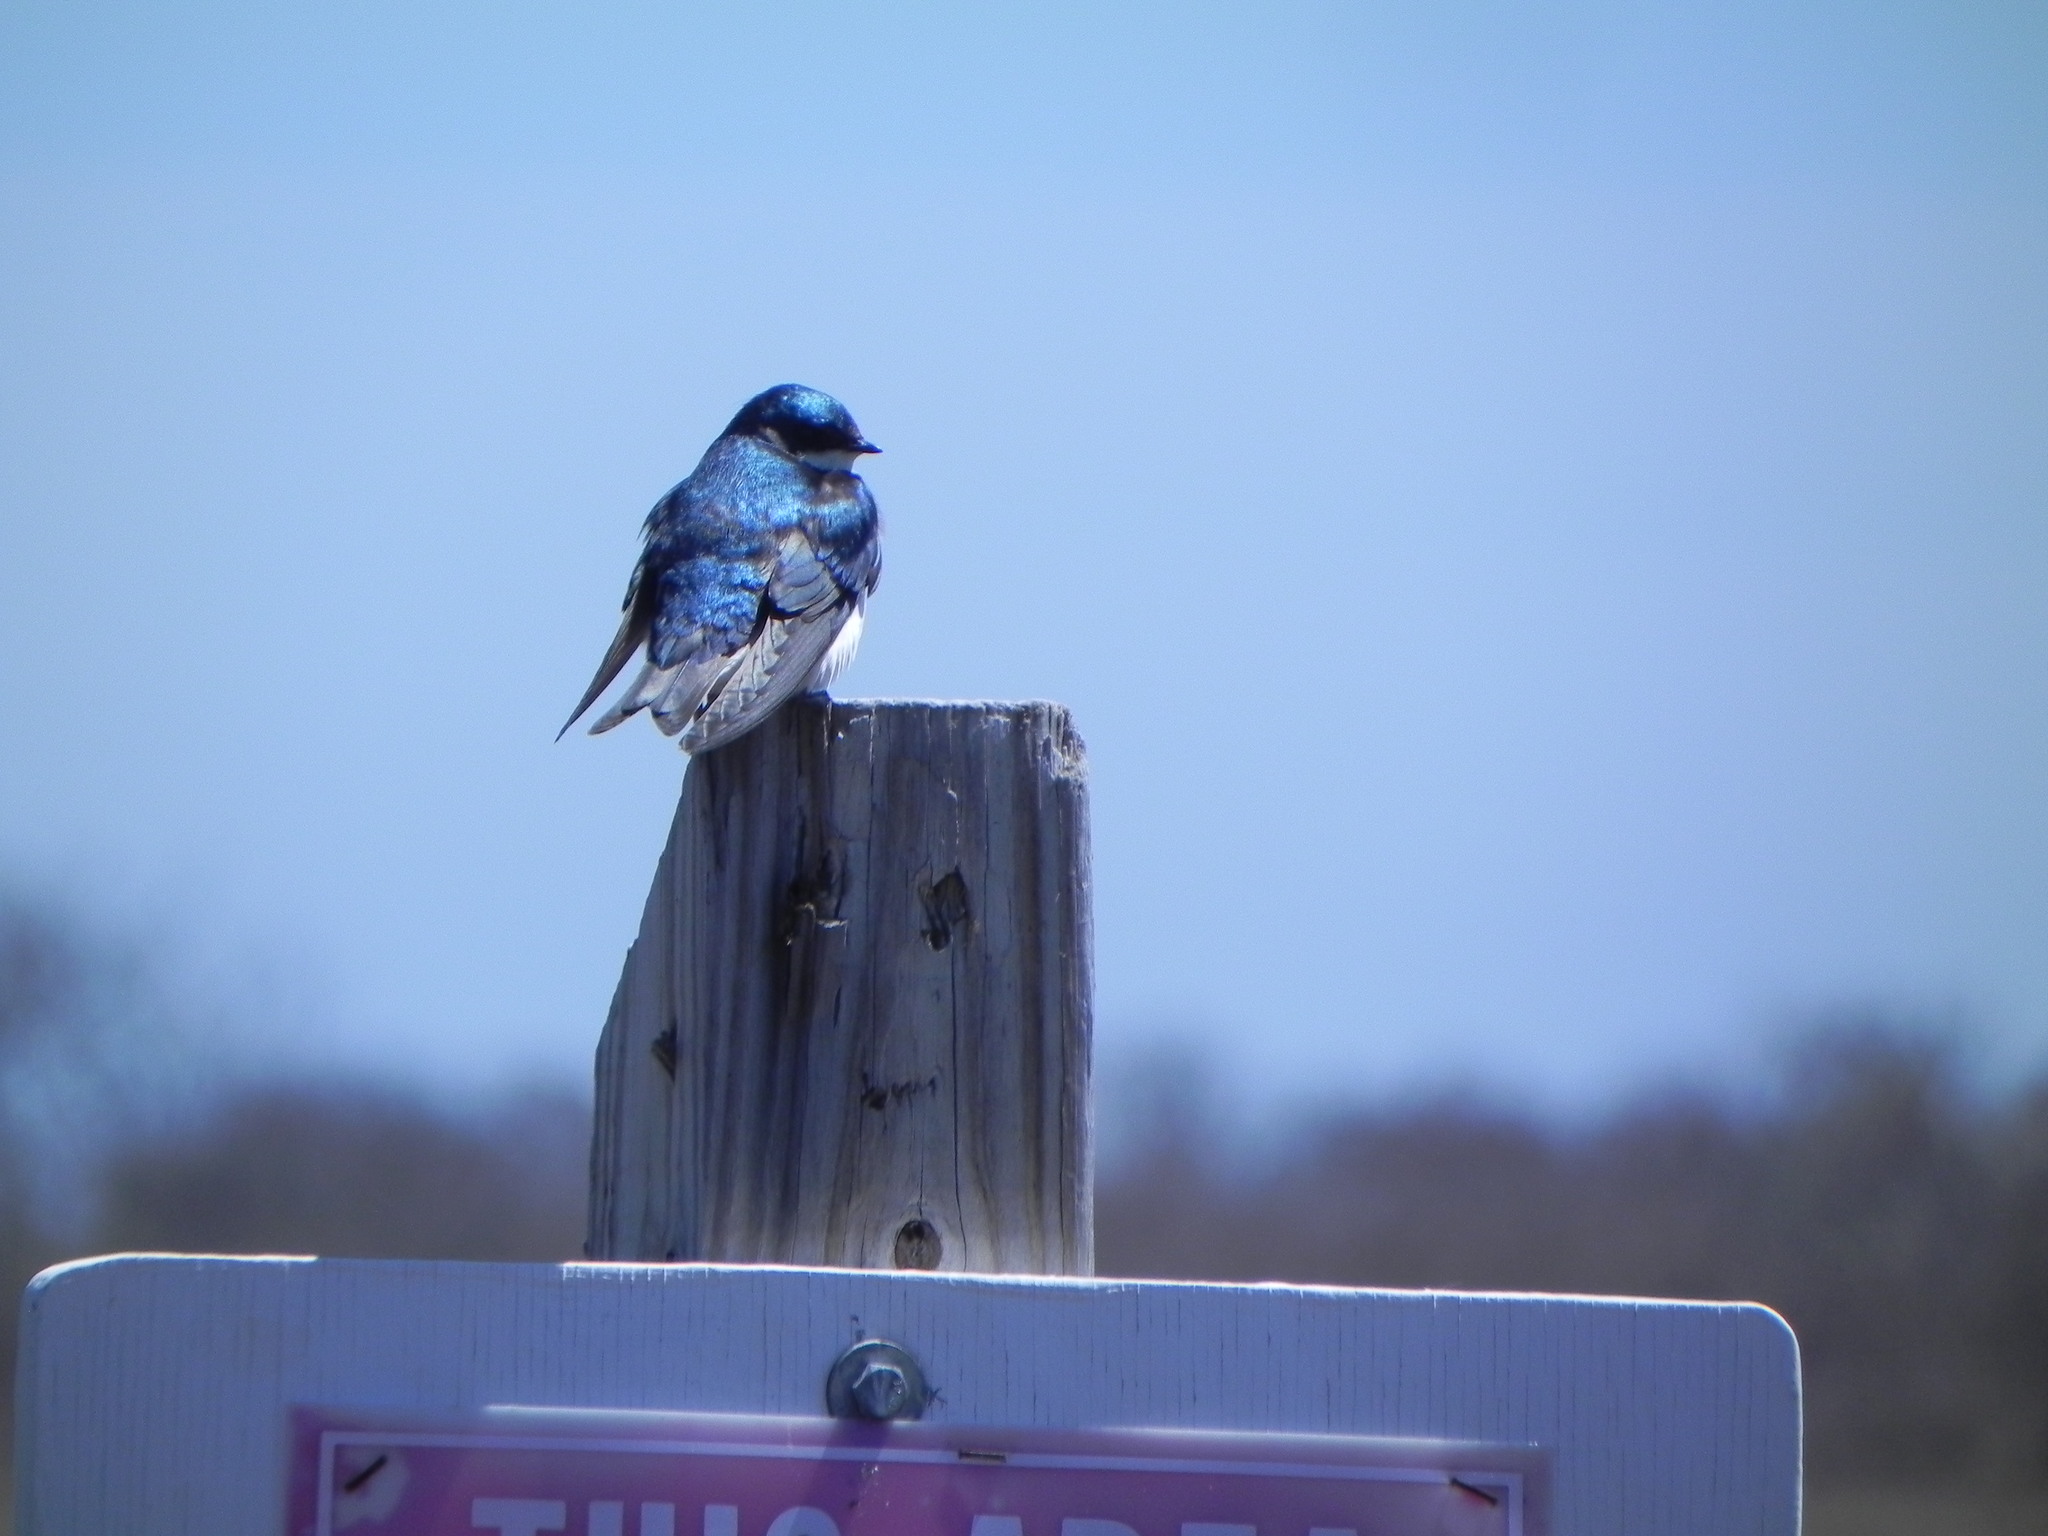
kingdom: Animalia
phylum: Chordata
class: Aves
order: Passeriformes
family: Hirundinidae
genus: Tachycineta
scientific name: Tachycineta bicolor
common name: Tree swallow
